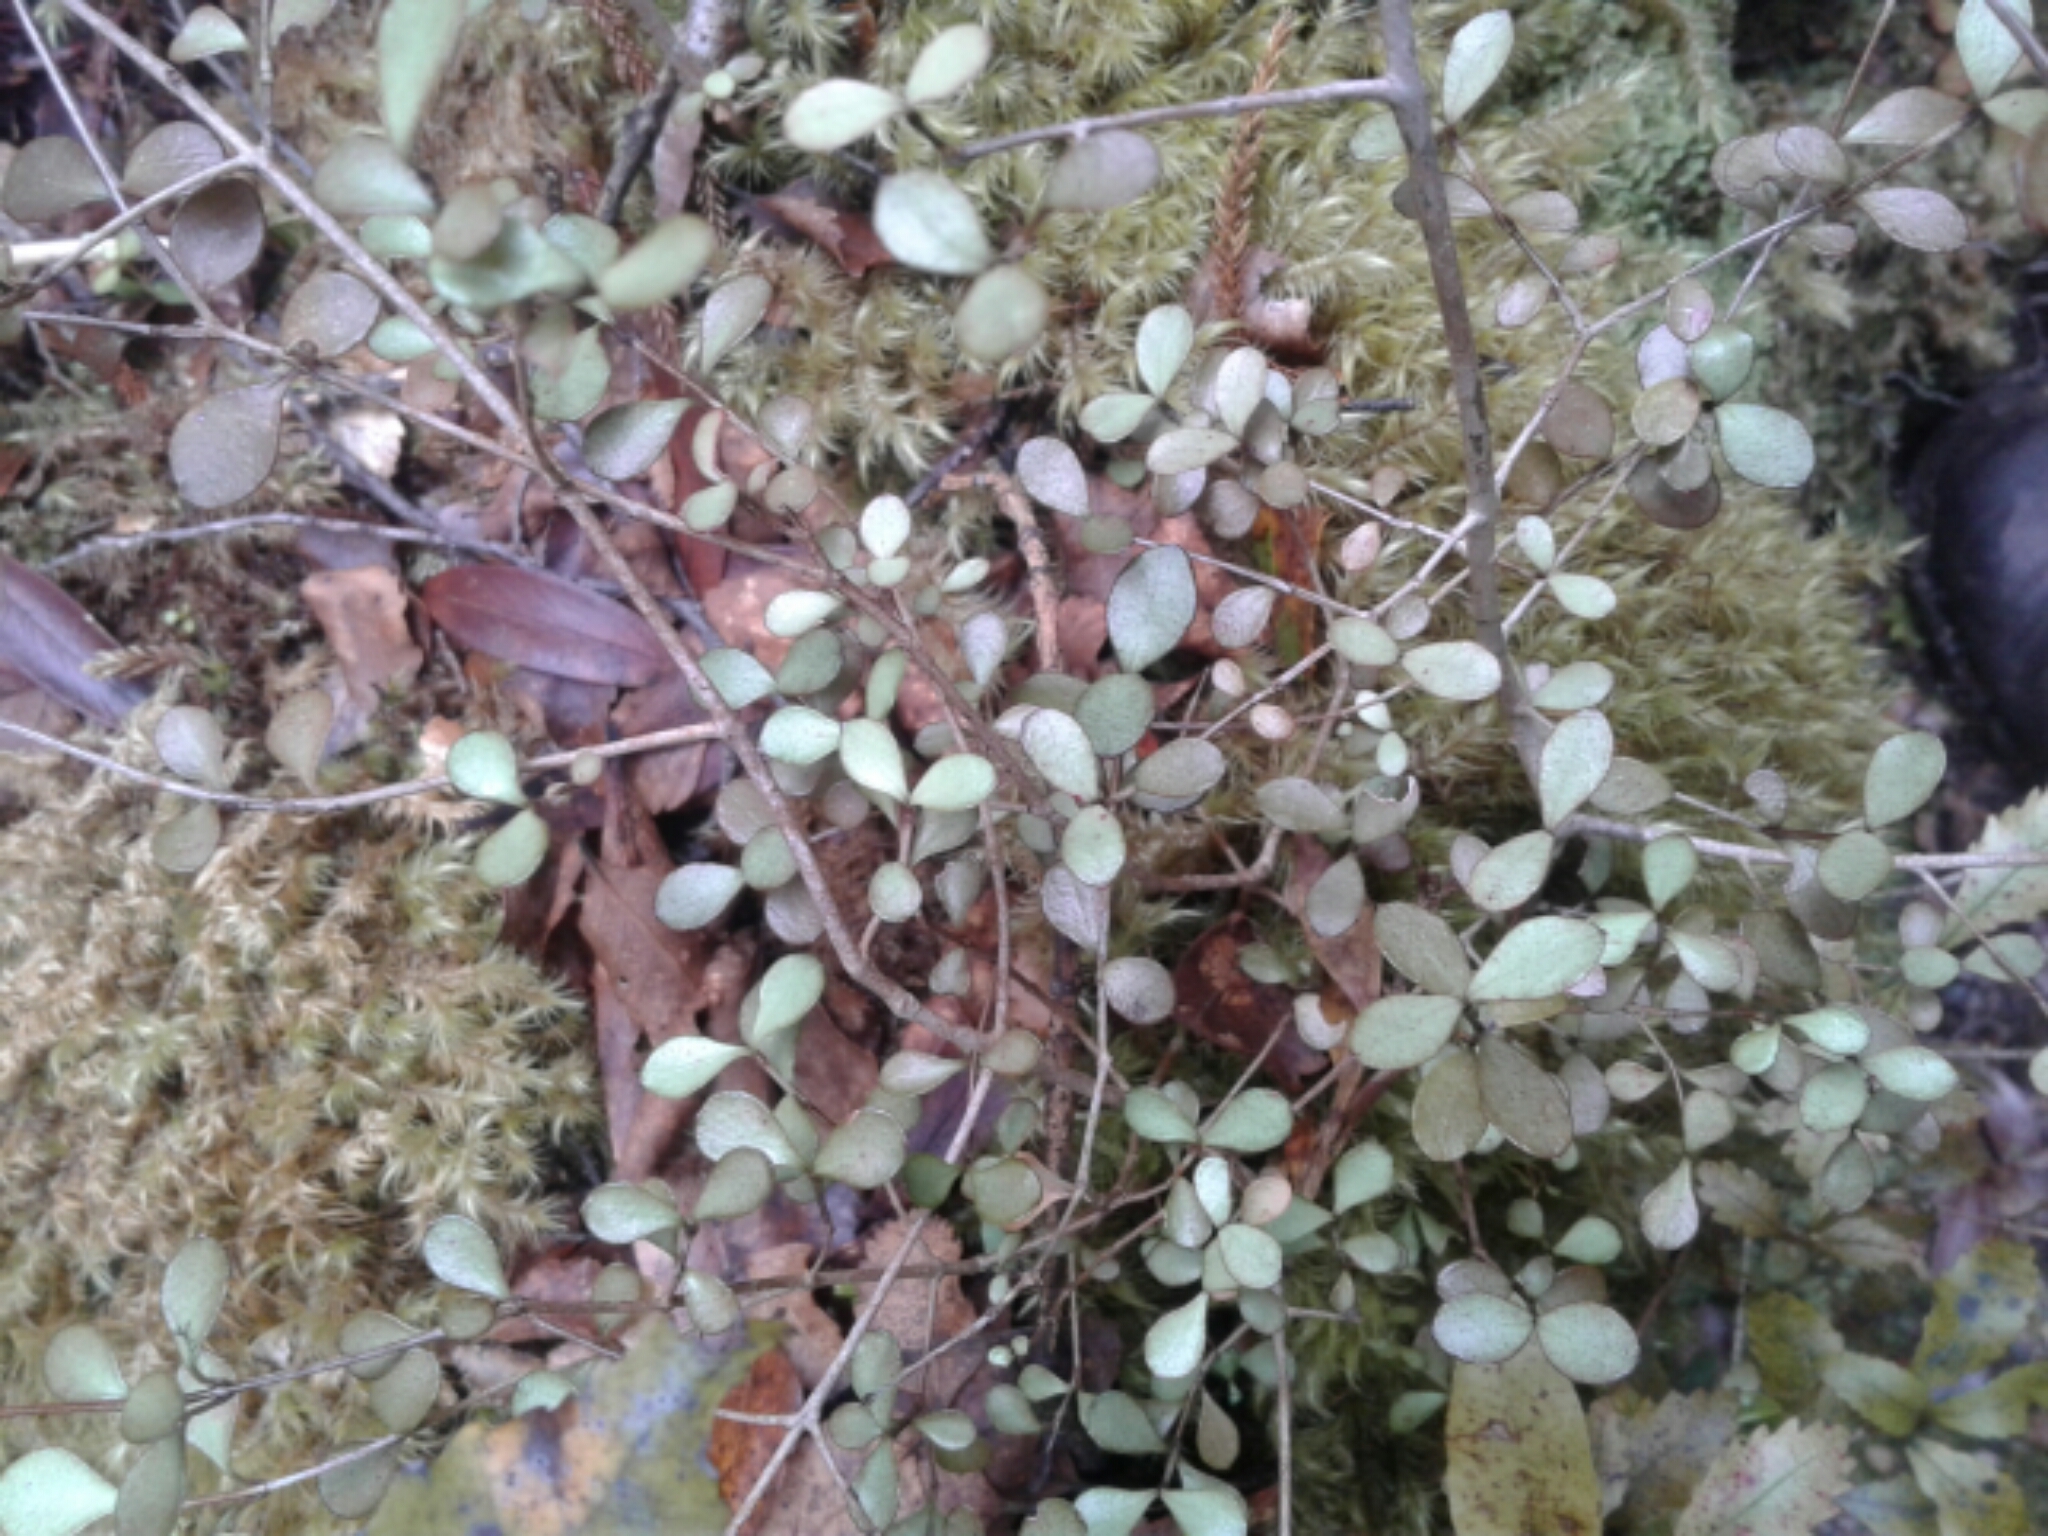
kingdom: Plantae
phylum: Tracheophyta
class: Magnoliopsida
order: Myrtales
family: Myrtaceae
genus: Neomyrtus
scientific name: Neomyrtus pedunculata
